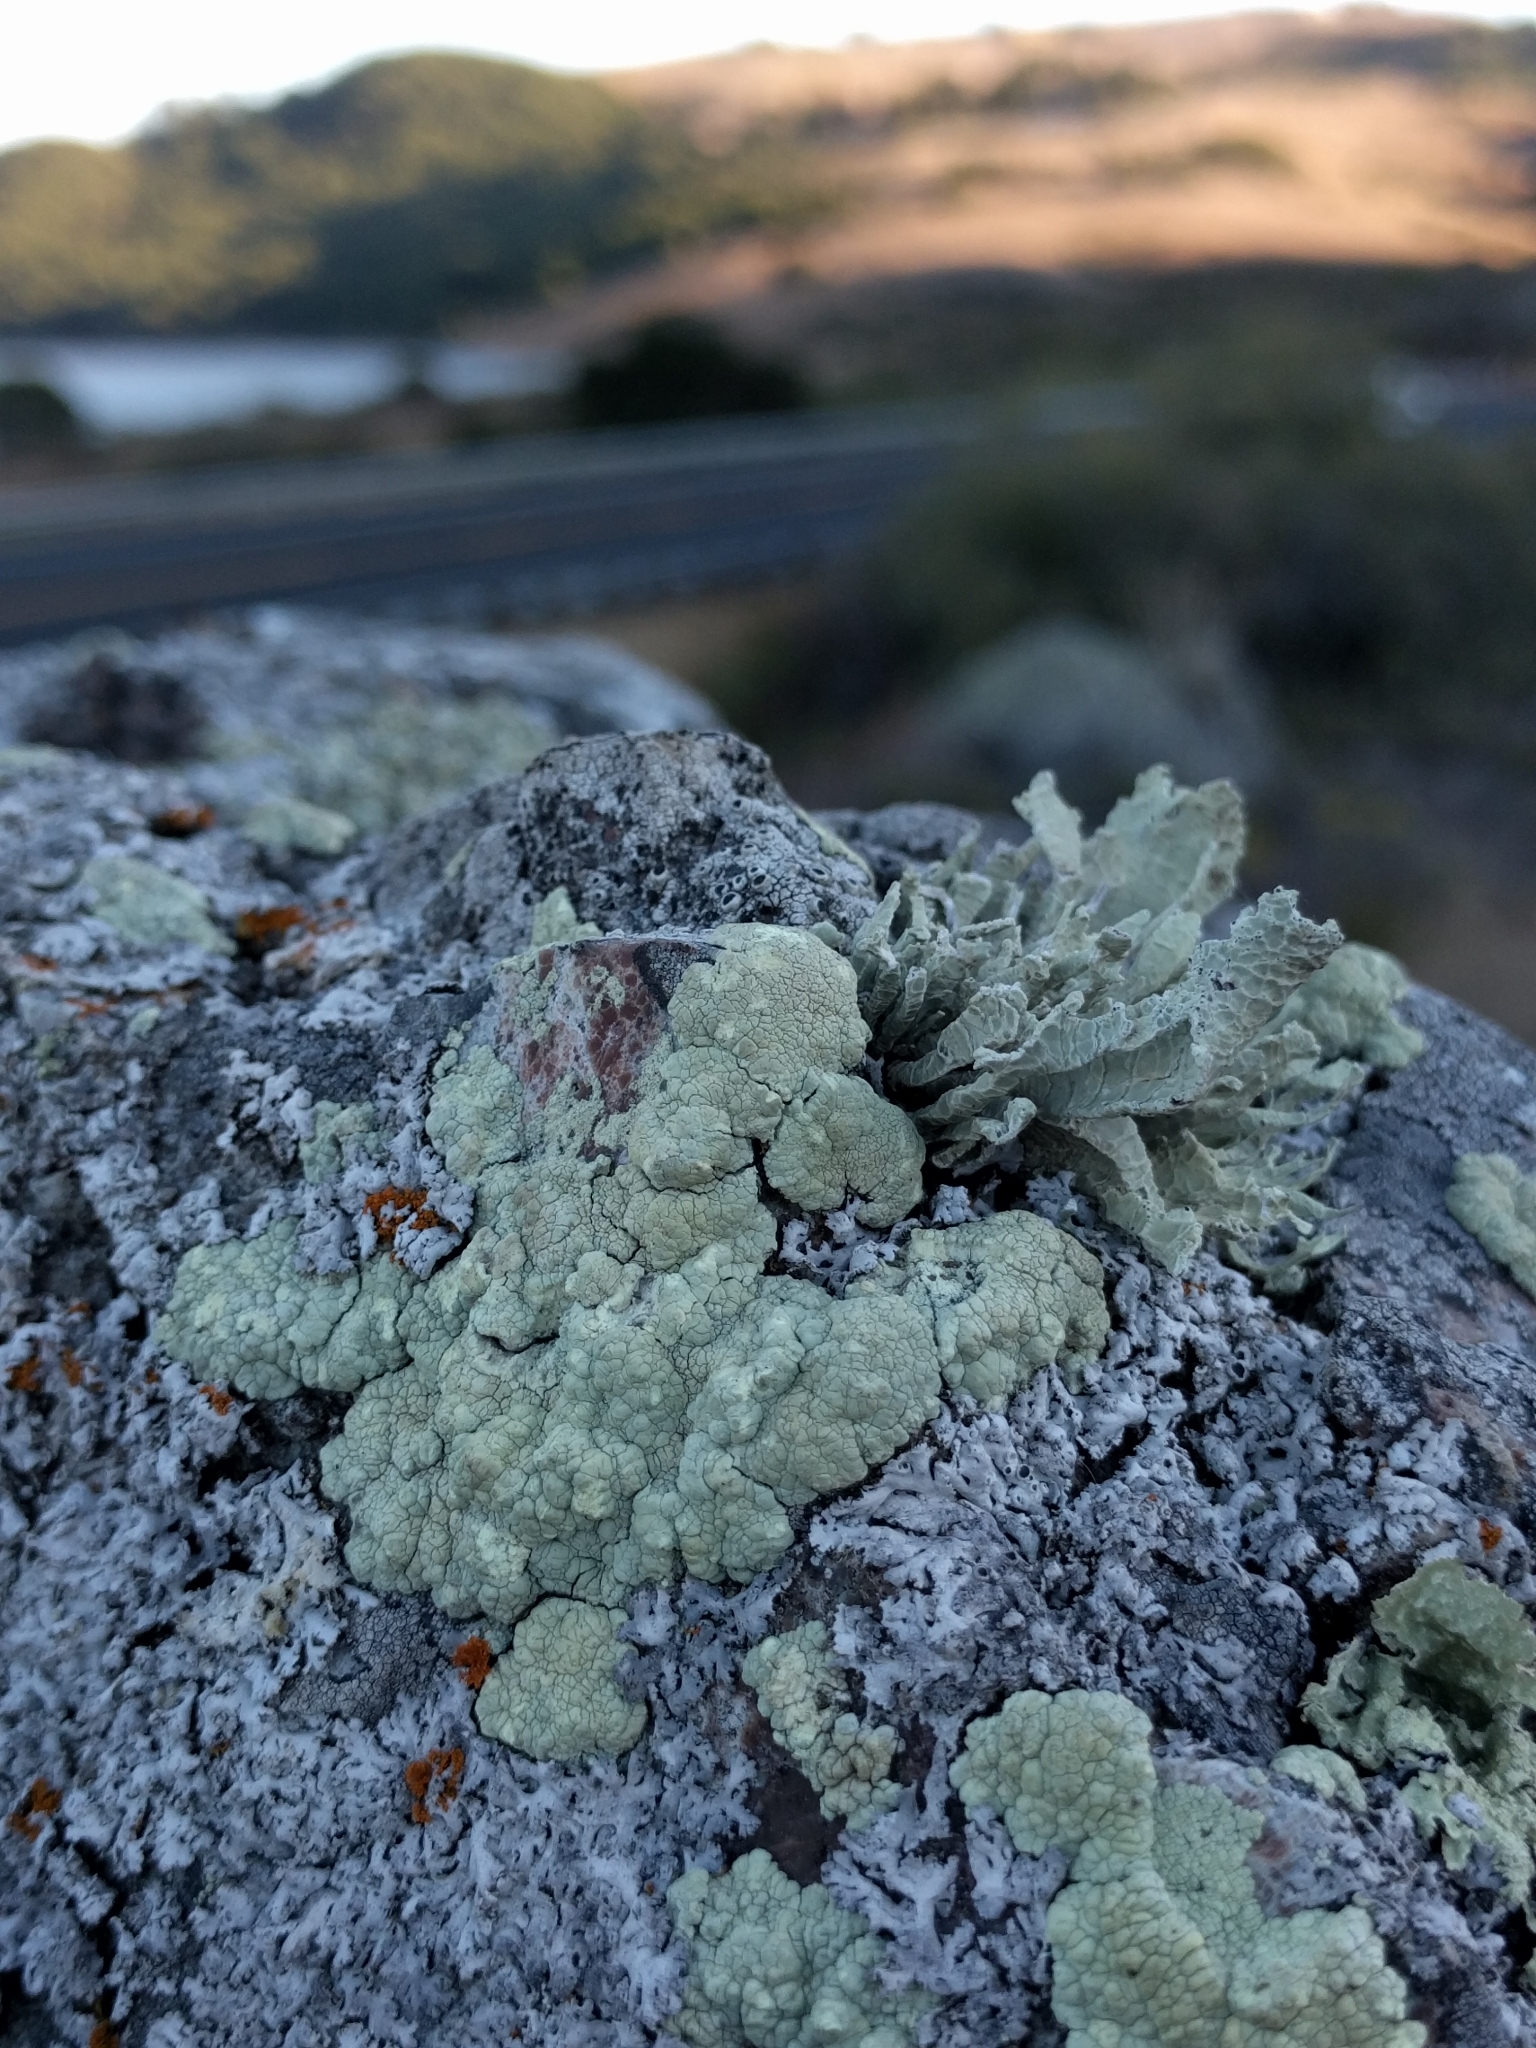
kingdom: Fungi
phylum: Ascomycota
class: Lecanoromycetes
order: Lecanorales
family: Lecanoraceae
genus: Protoparmeliopsis
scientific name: Protoparmeliopsis pinguis
